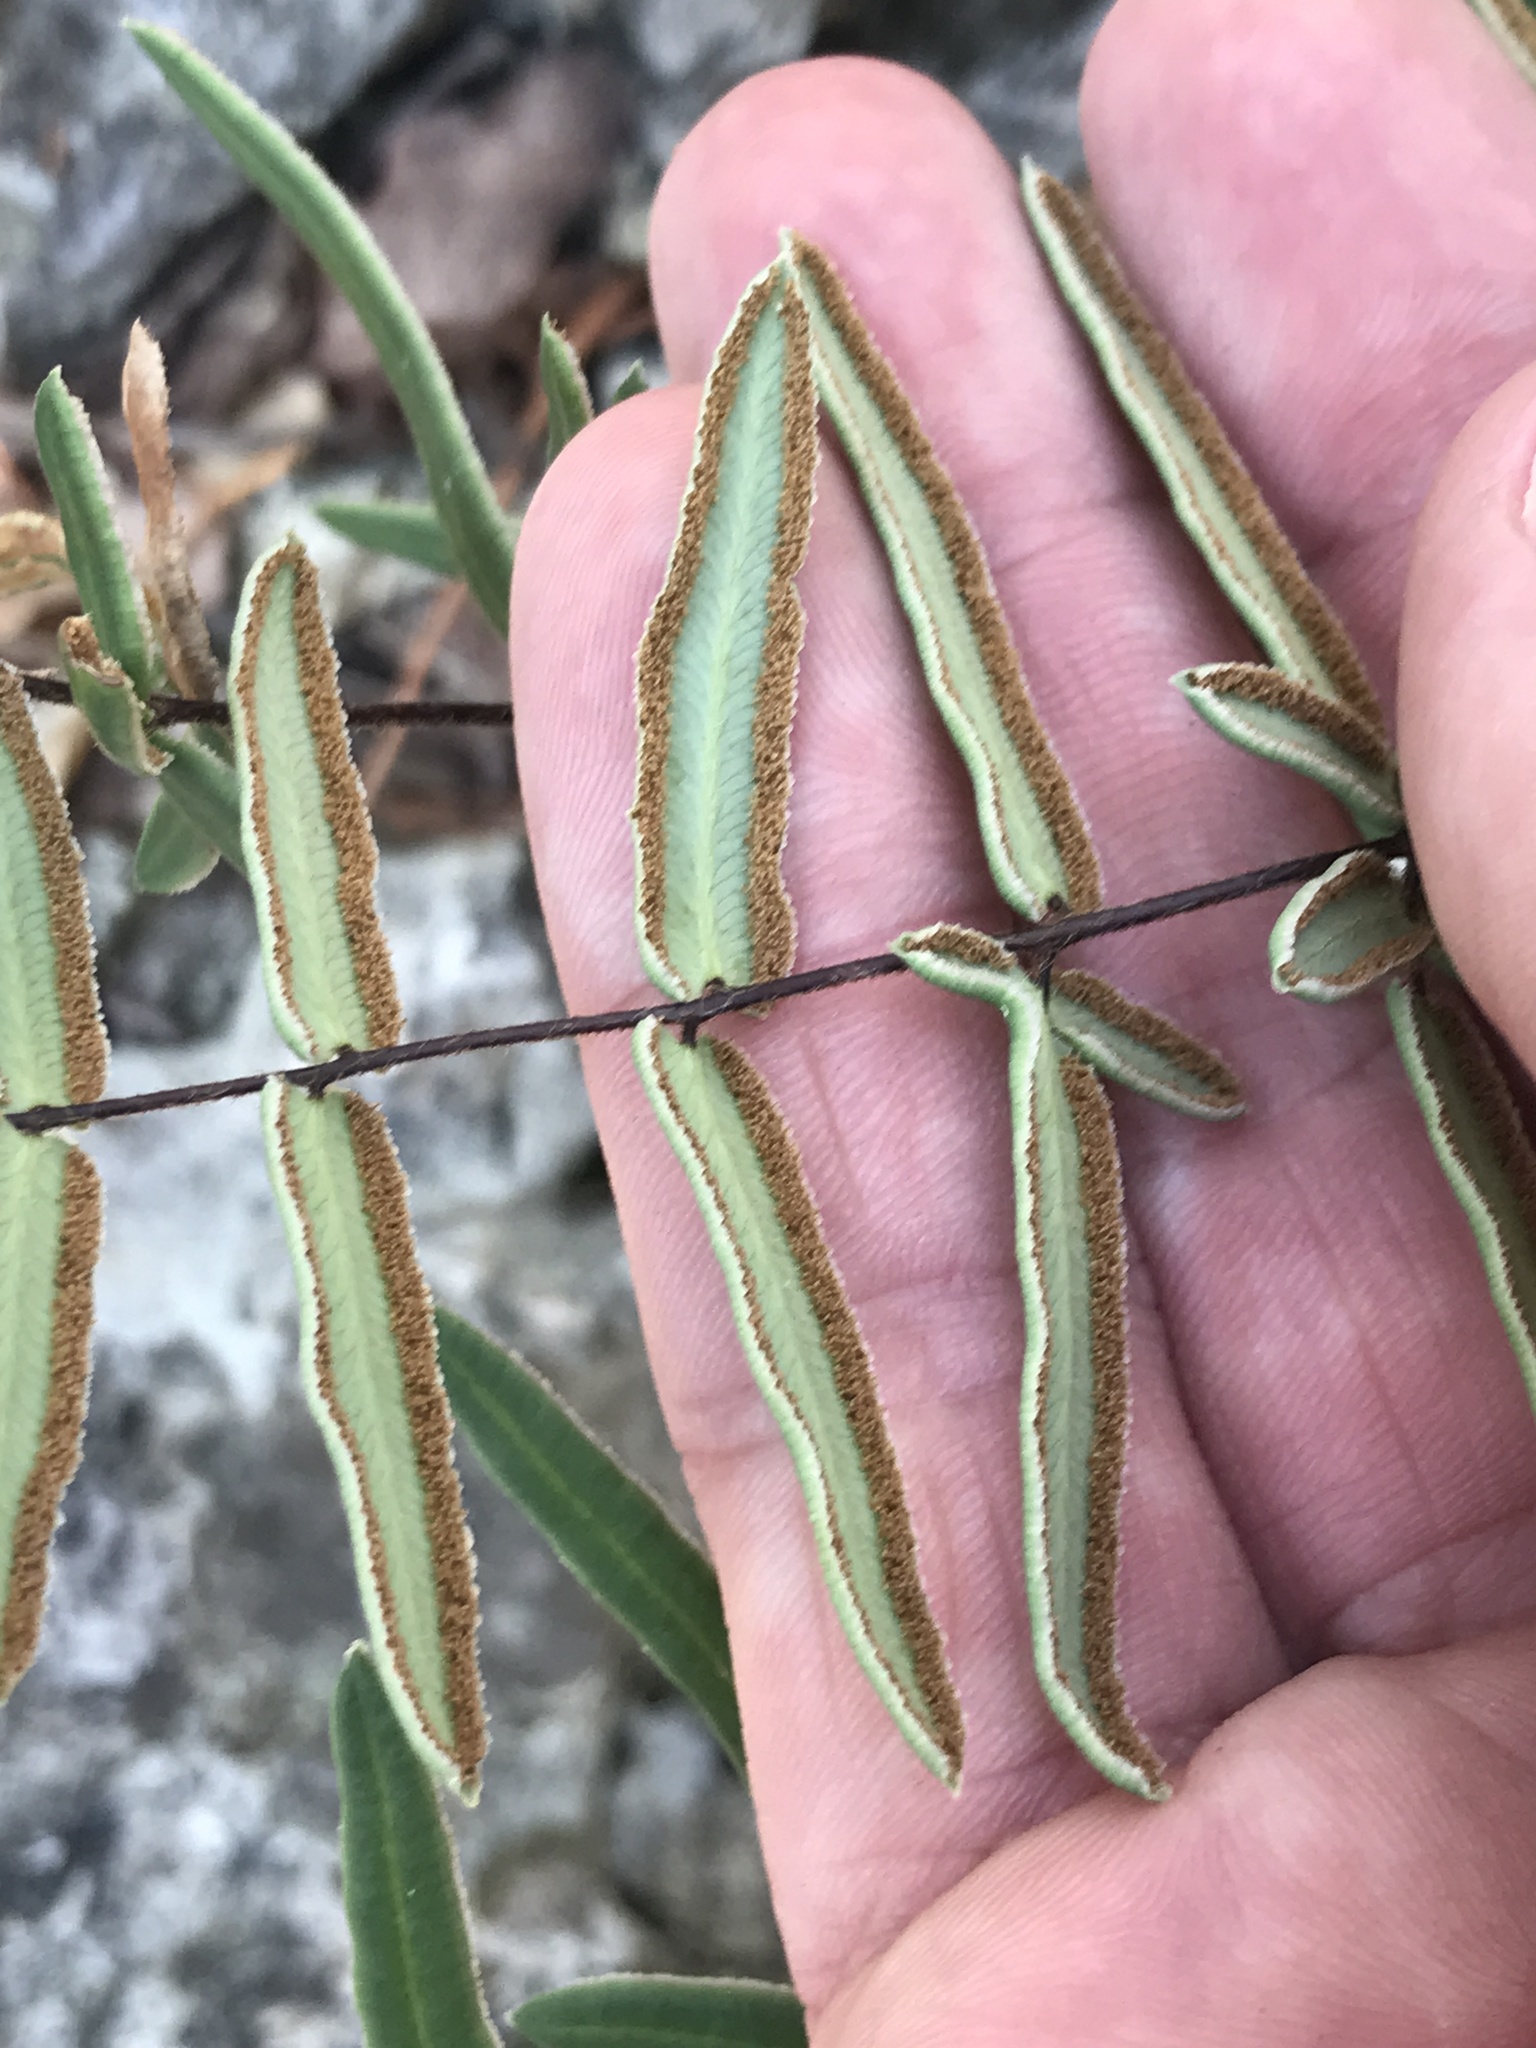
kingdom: Plantae
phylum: Tracheophyta
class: Polypodiopsida
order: Polypodiales
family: Pteridaceae
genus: Pellaea
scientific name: Pellaea atropurpurea
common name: Hairy cliffbrake
